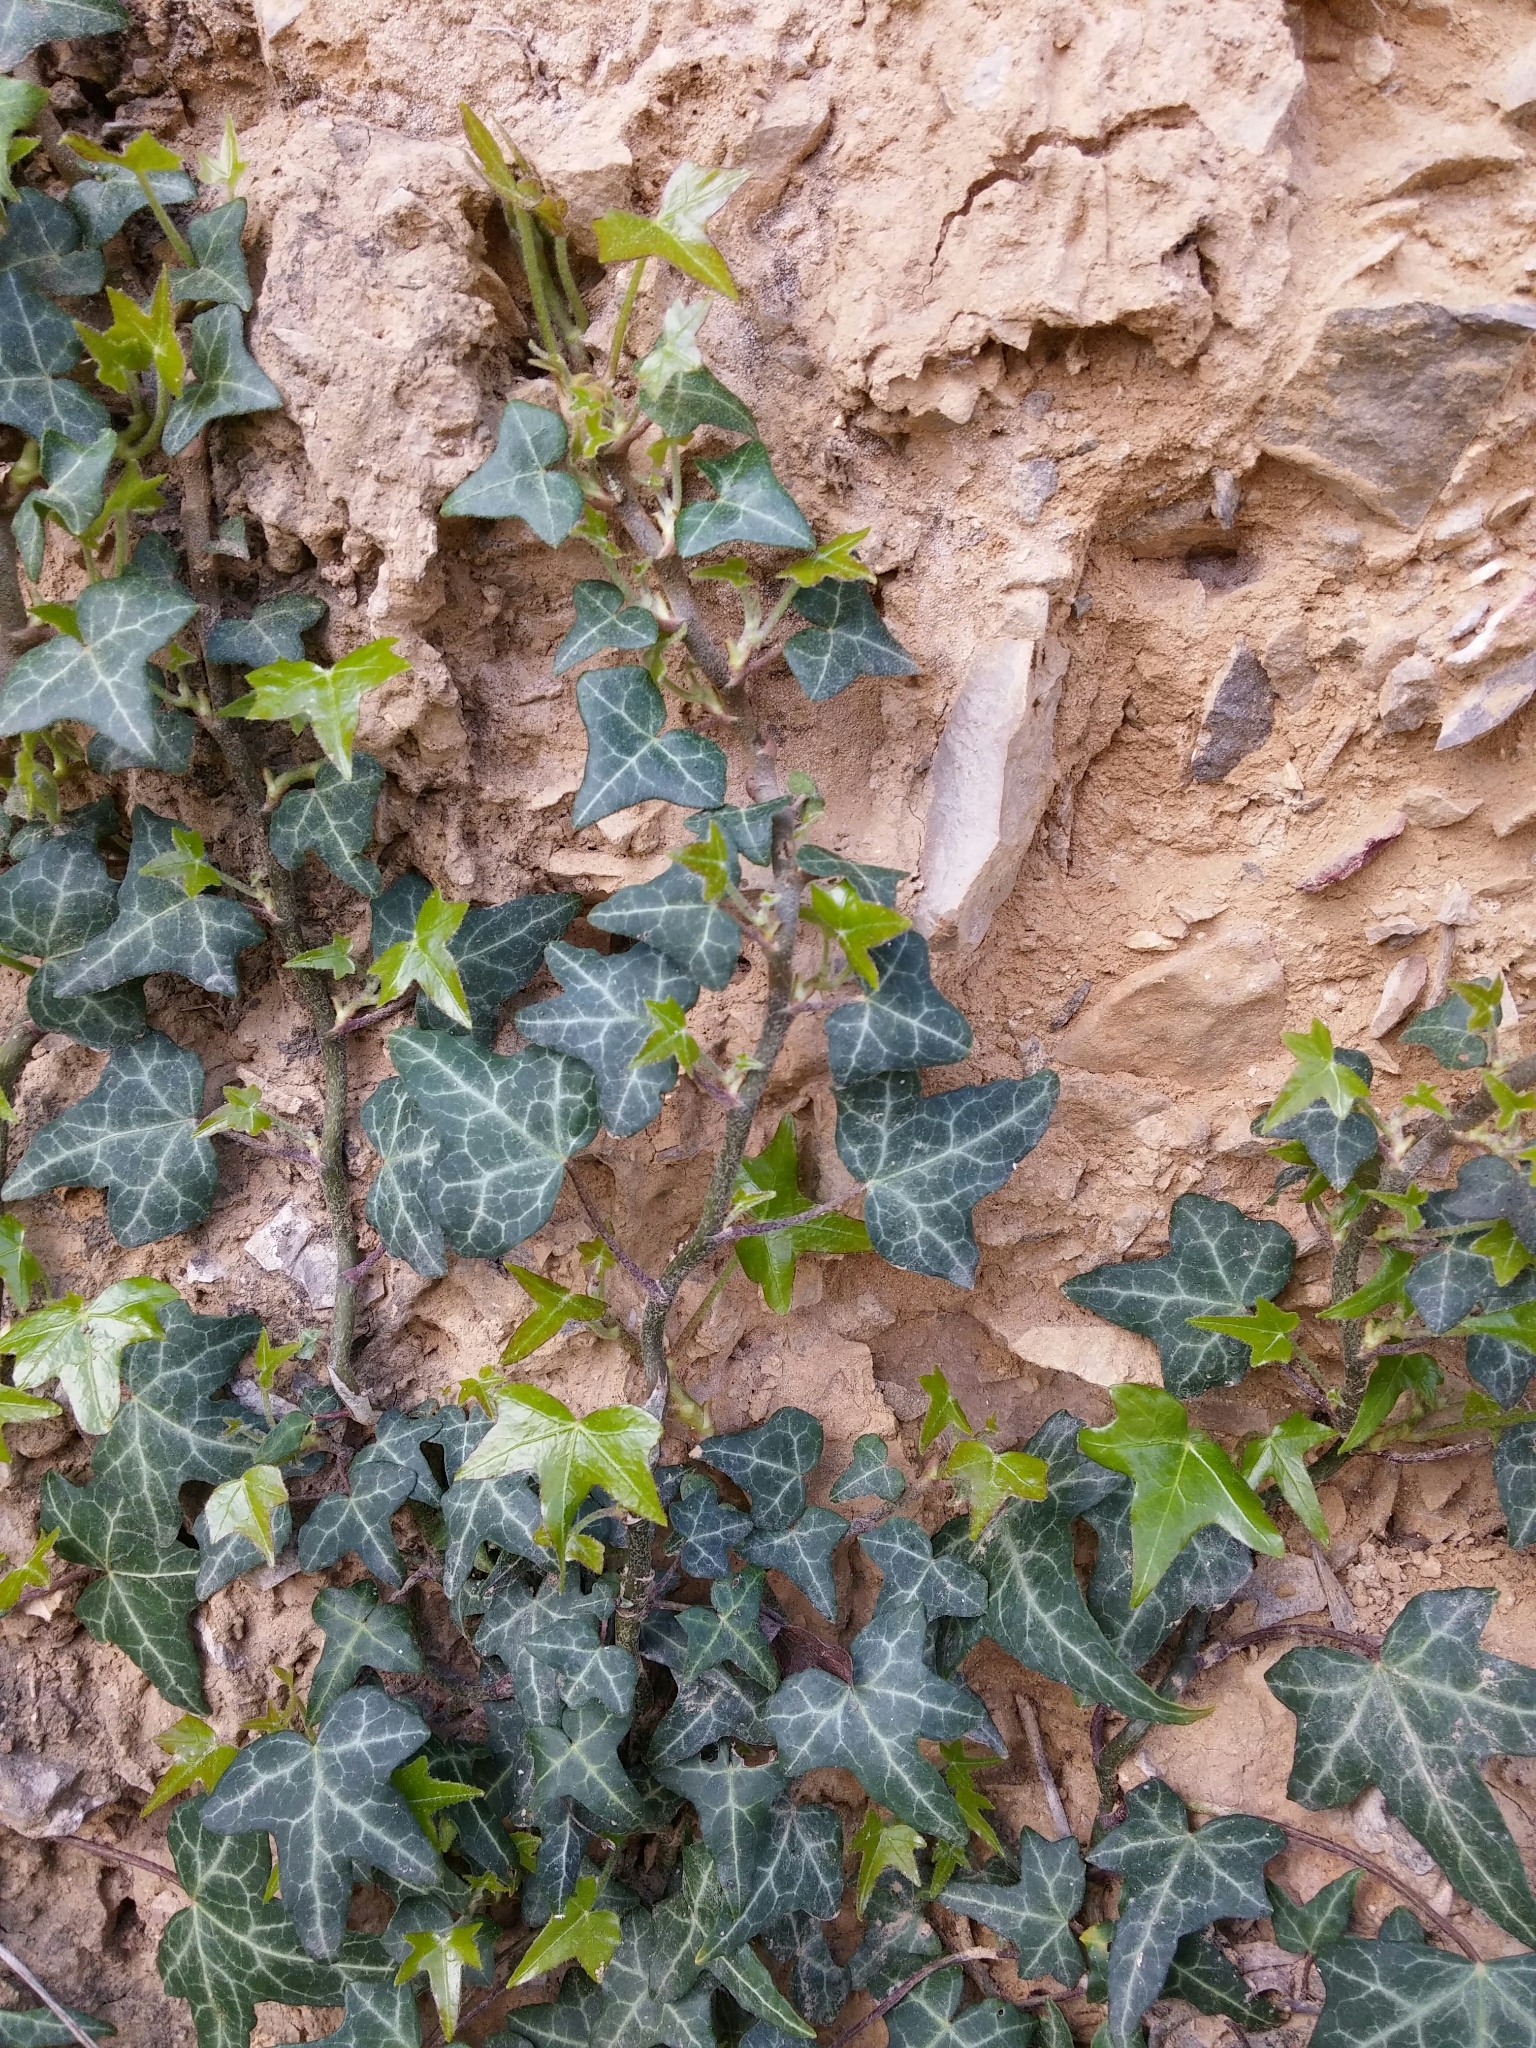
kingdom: Plantae
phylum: Tracheophyta
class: Magnoliopsida
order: Apiales
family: Araliaceae
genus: Hedera
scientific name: Hedera helix
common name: Ivy
